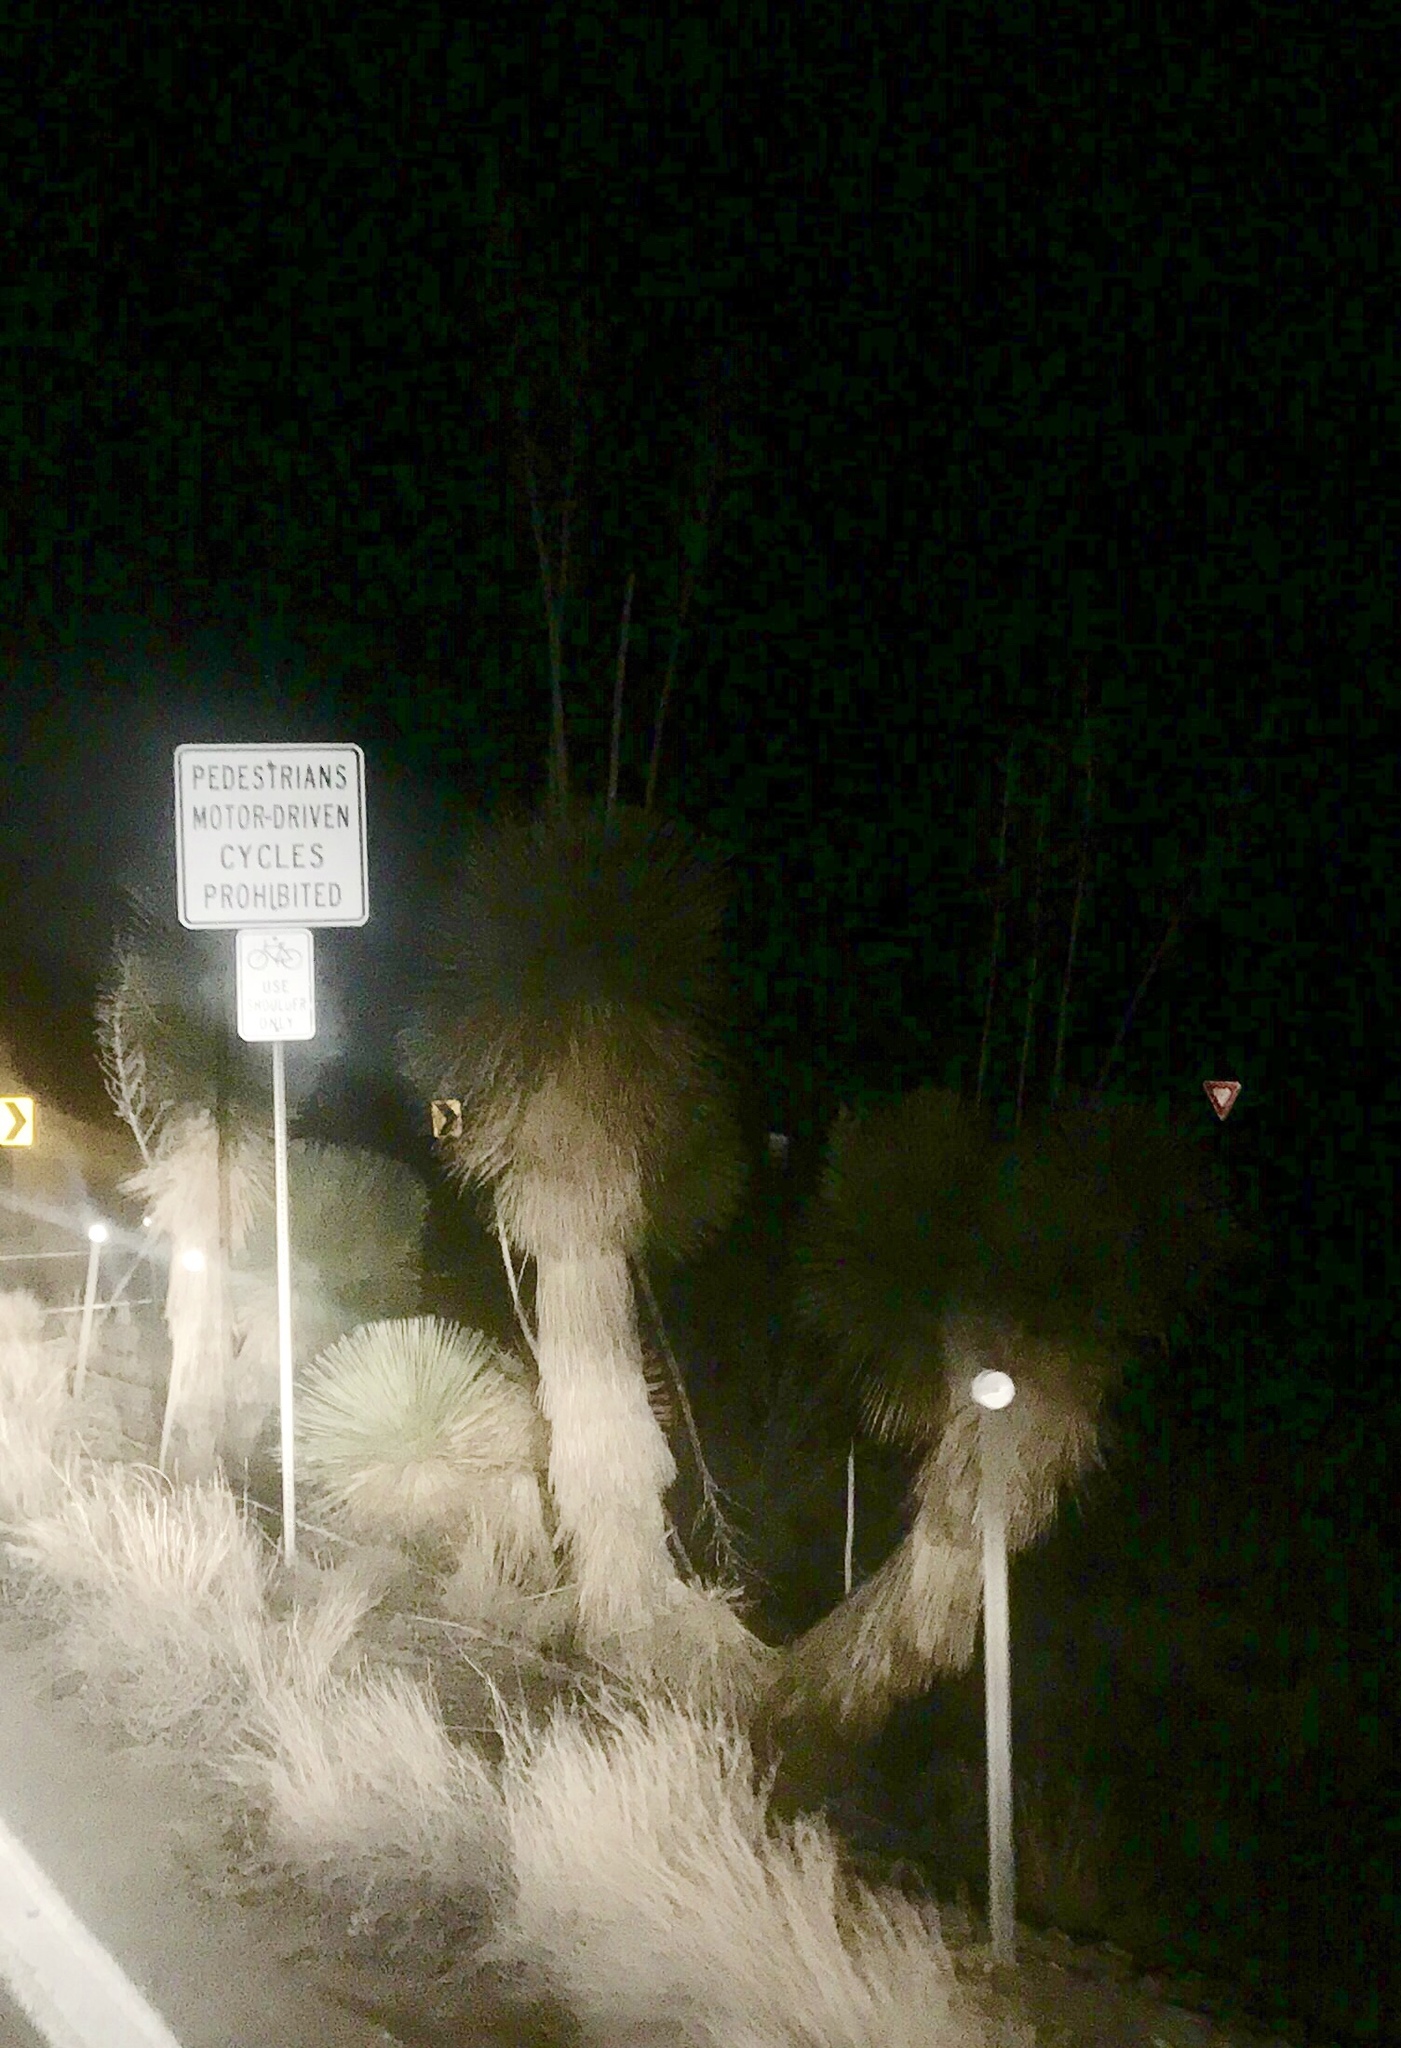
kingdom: Plantae
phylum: Tracheophyta
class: Liliopsida
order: Asparagales
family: Asparagaceae
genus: Yucca
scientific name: Yucca elata
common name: Palmella
